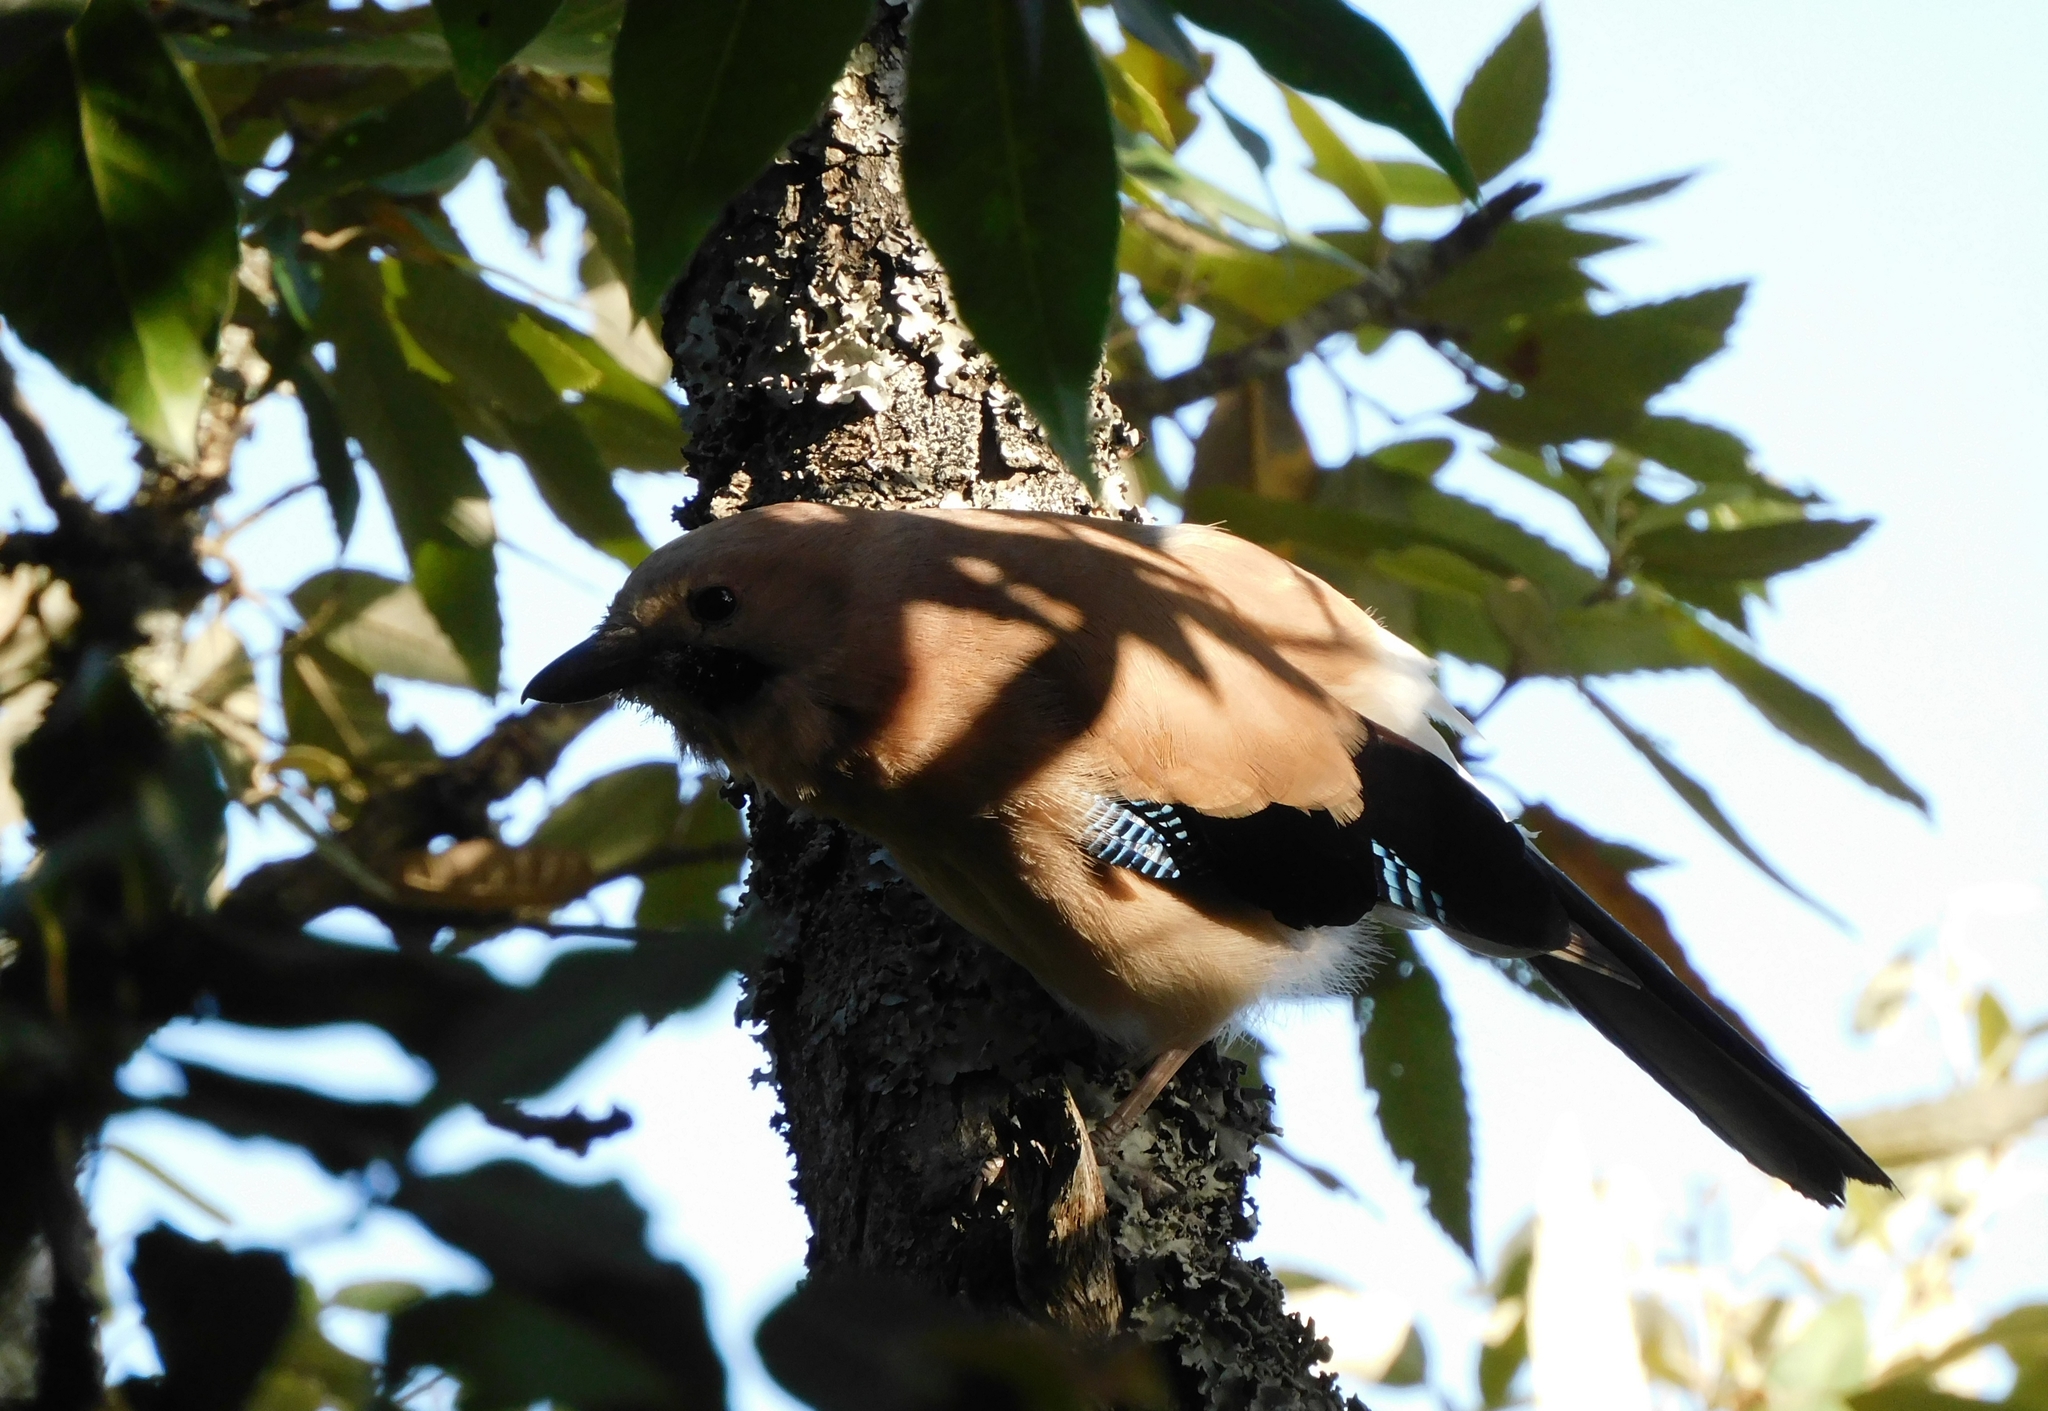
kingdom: Animalia
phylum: Chordata
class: Aves
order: Passeriformes
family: Corvidae
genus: Garrulus
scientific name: Garrulus glandarius
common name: Eurasian jay
